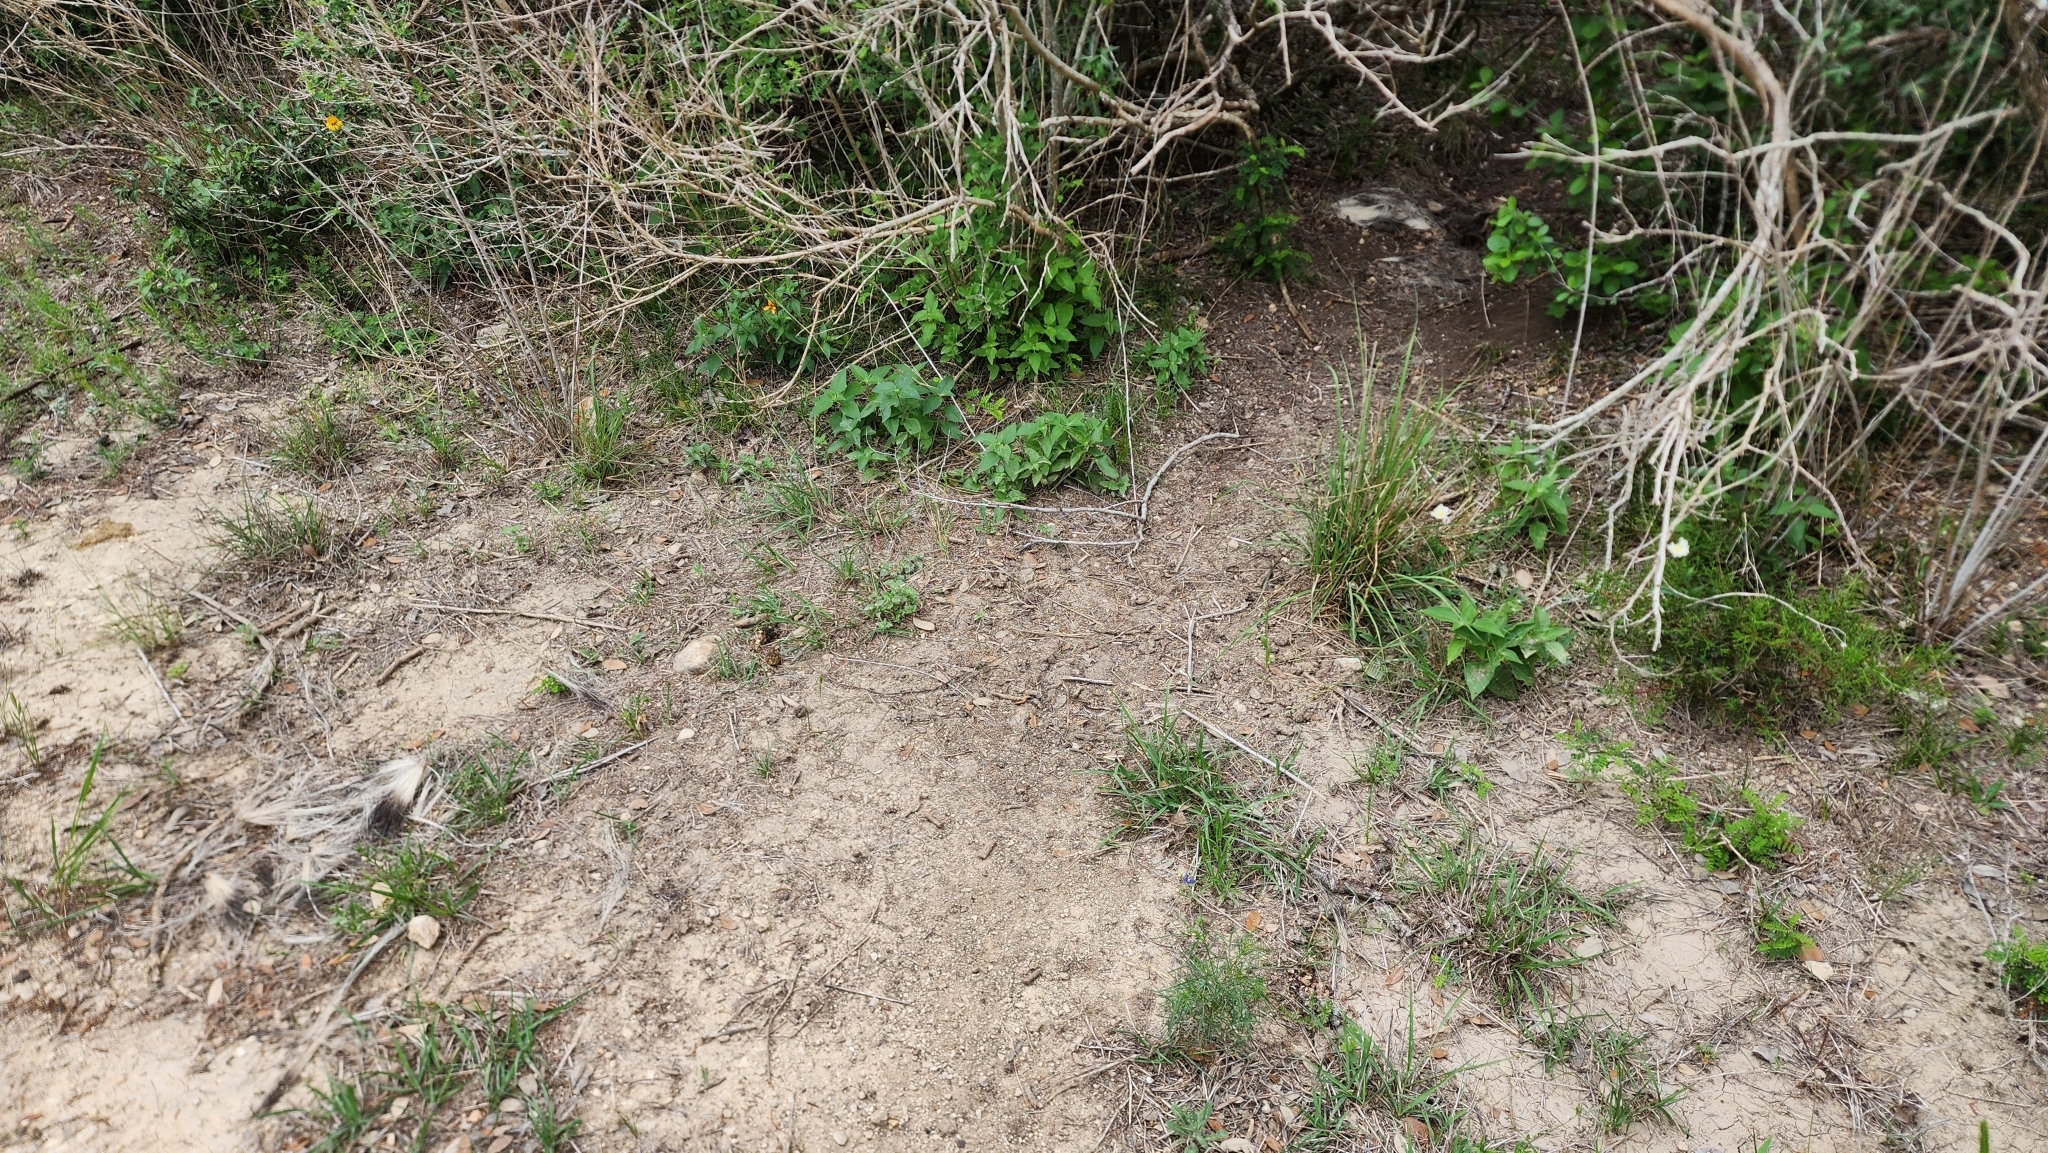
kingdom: Animalia
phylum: Chordata
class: Mammalia
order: Carnivora
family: Mephitidae
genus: Mephitis
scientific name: Mephitis mephitis
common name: Striped skunk
